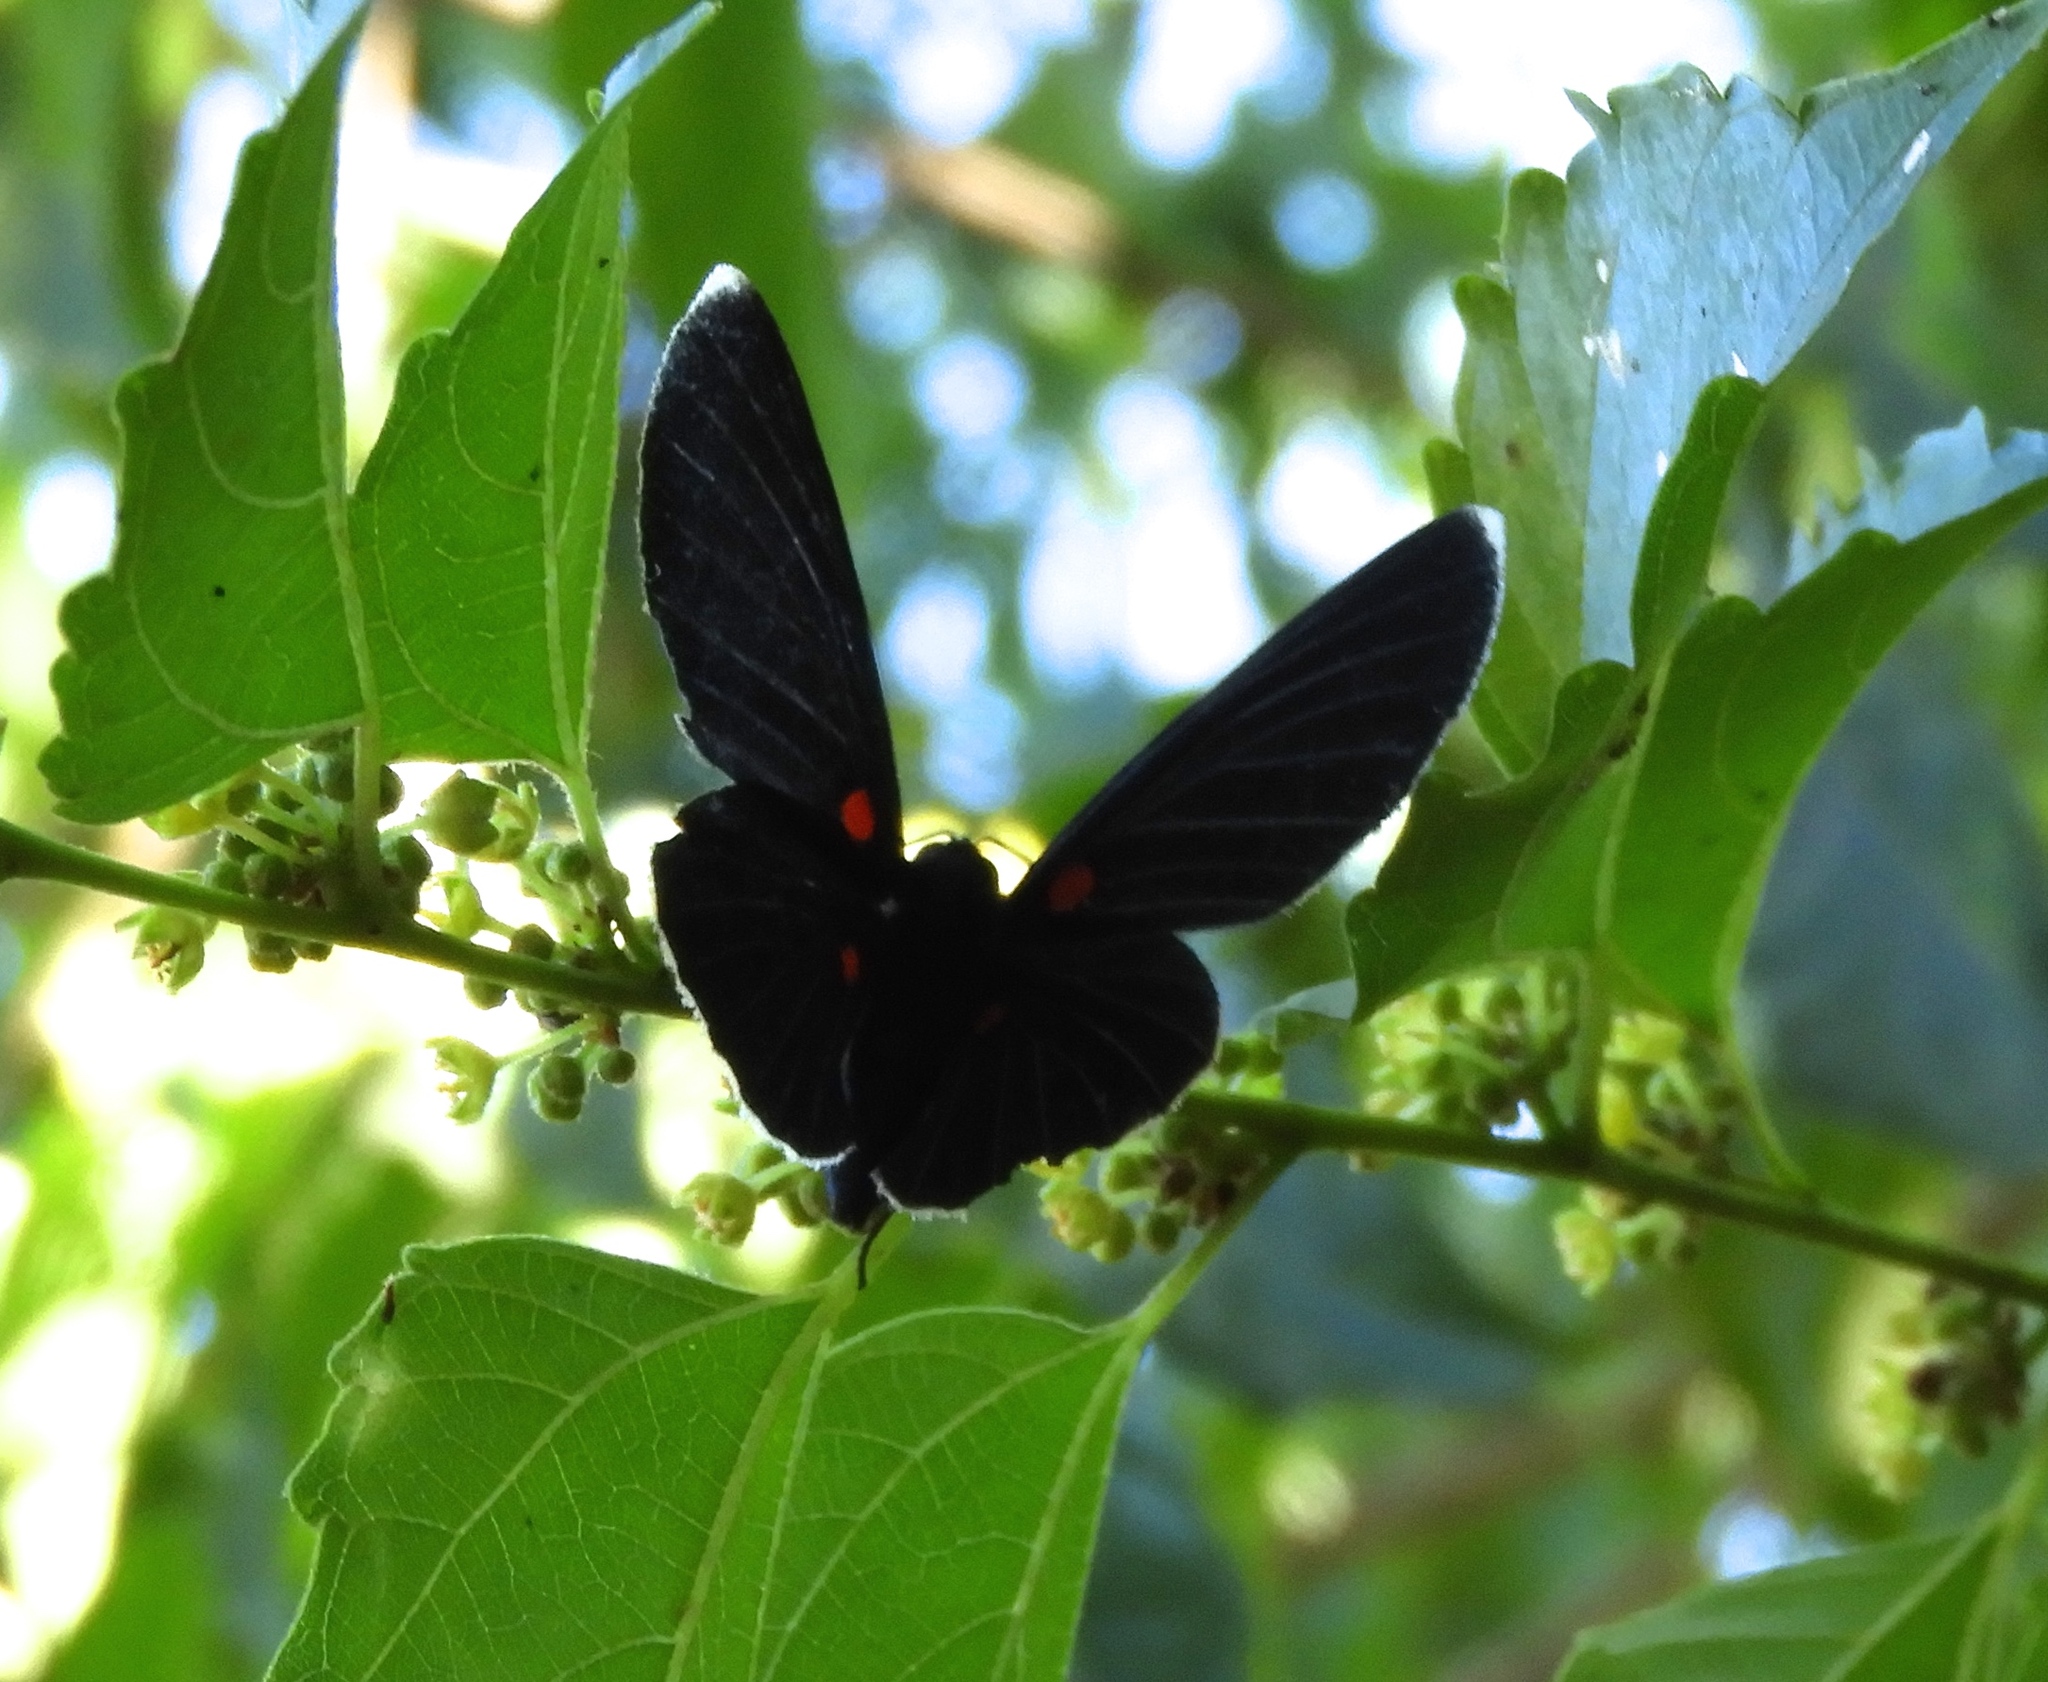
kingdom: Animalia
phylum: Arthropoda
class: Insecta
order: Lepidoptera
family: Lycaenidae
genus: Melanis
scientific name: Melanis
